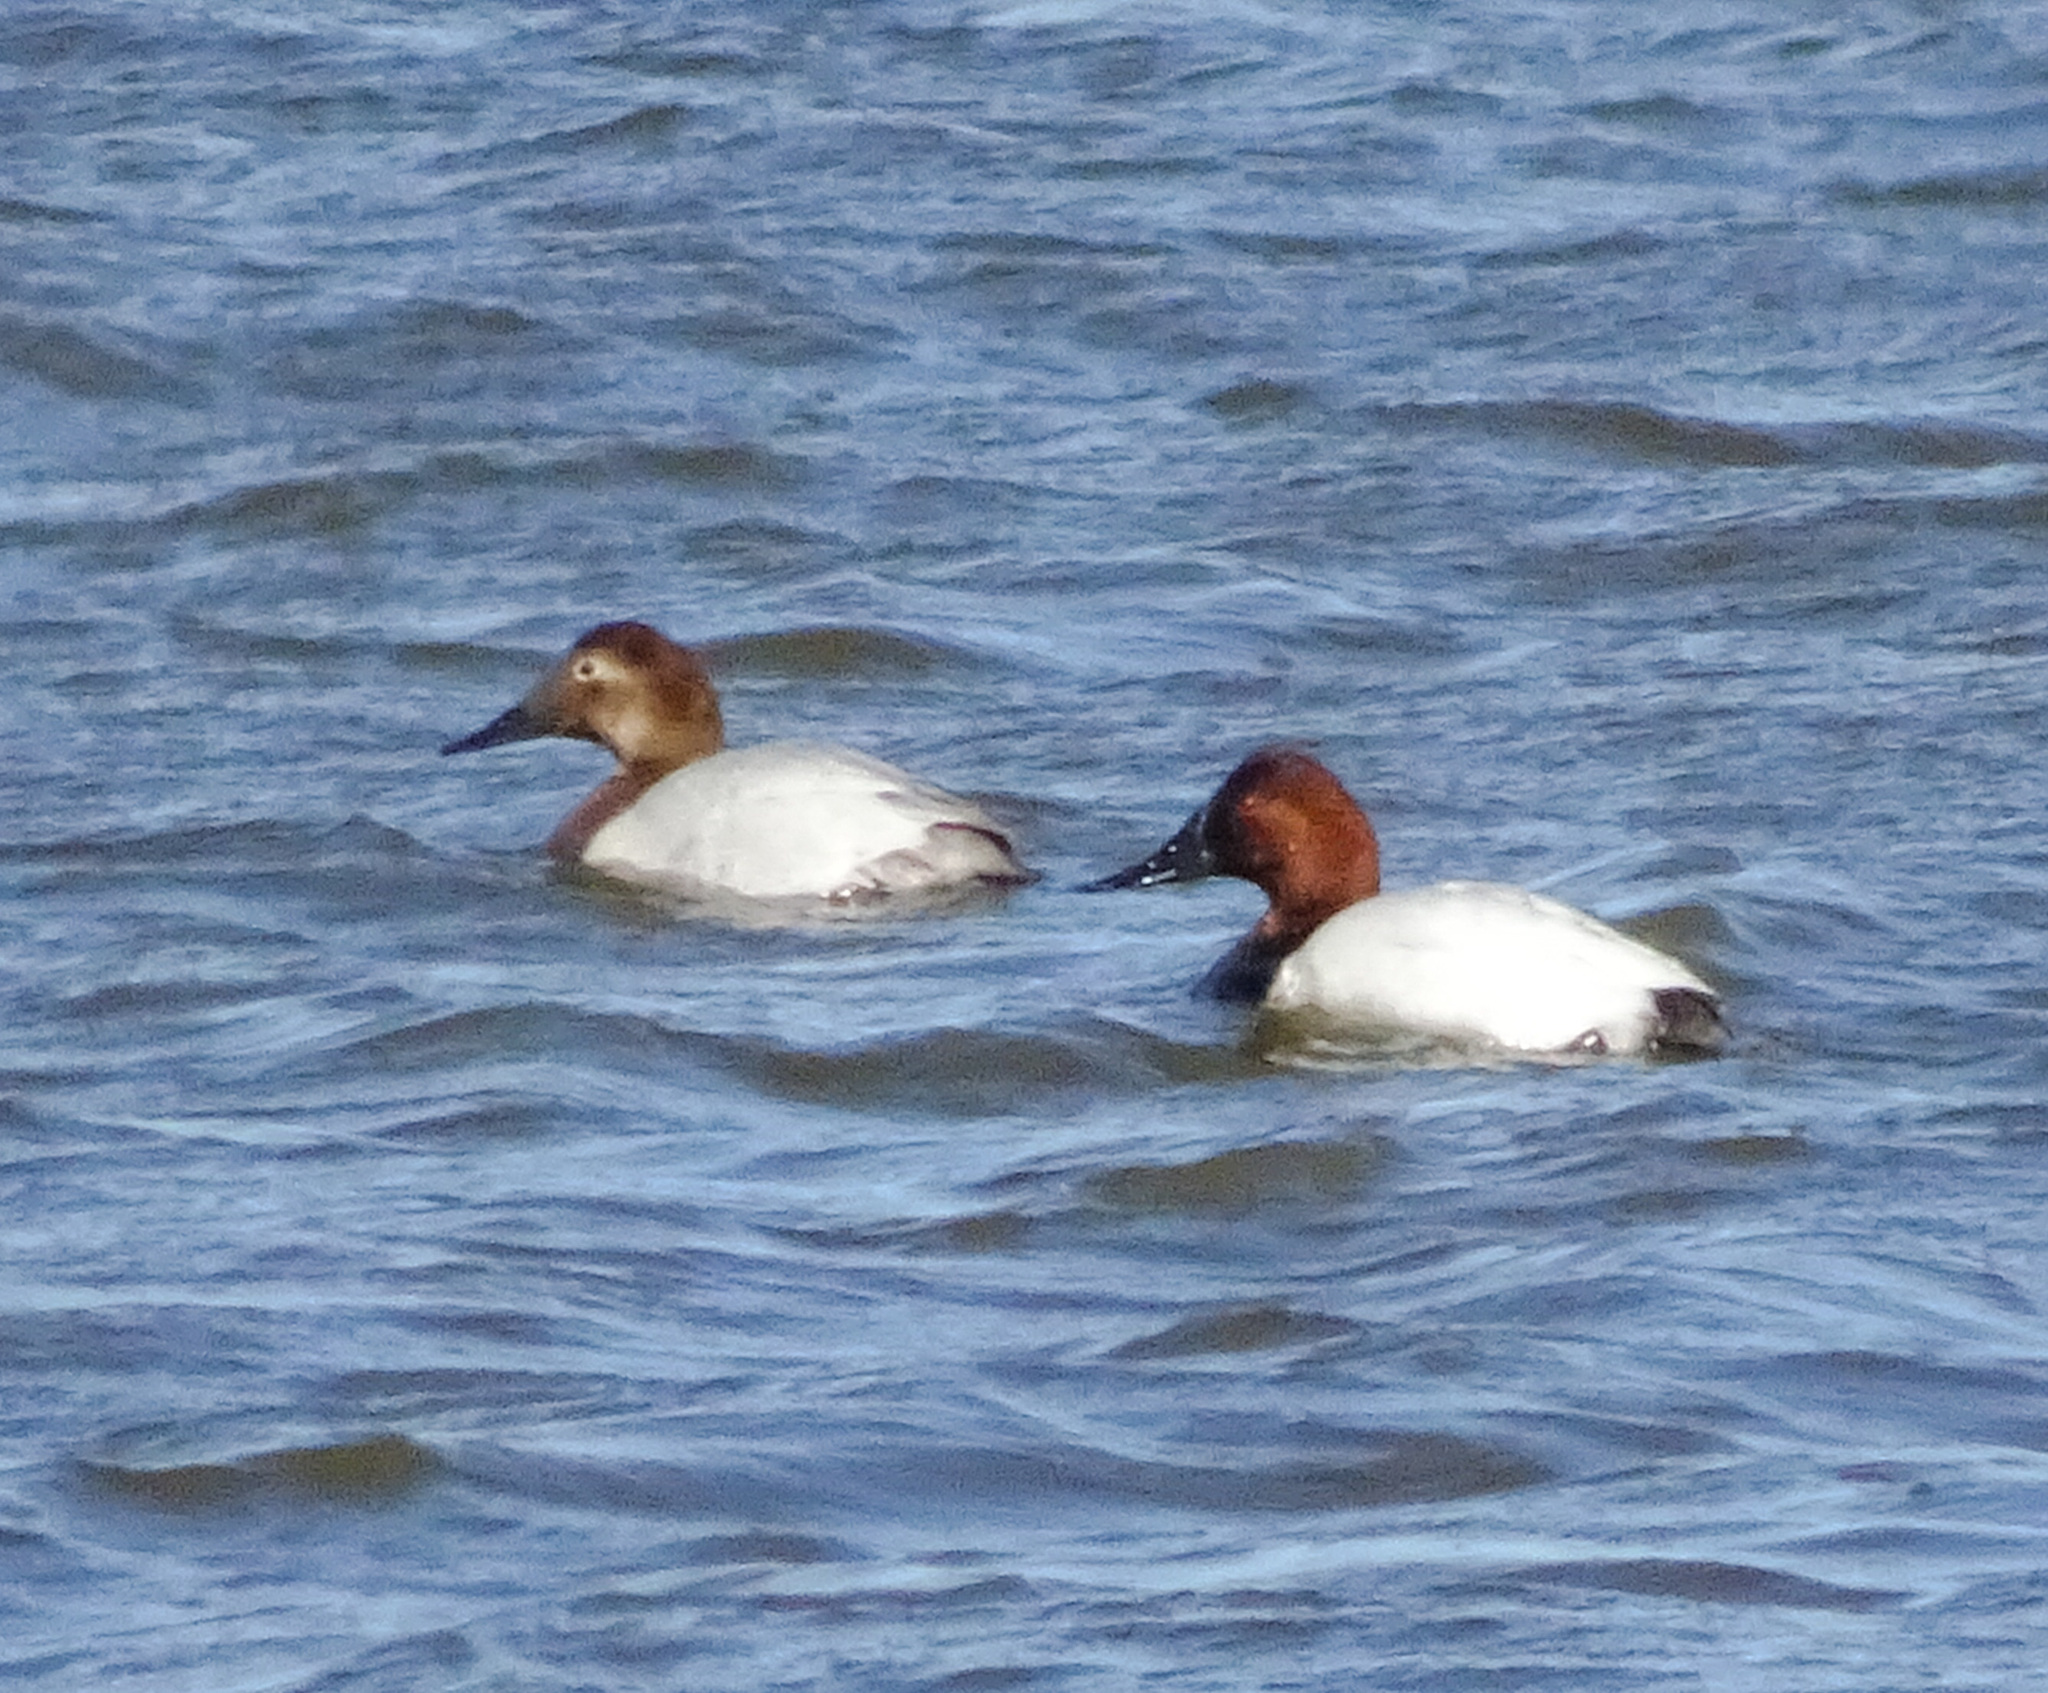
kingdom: Animalia
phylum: Chordata
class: Aves
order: Anseriformes
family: Anatidae
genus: Aythya
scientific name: Aythya valisineria
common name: Canvasback
